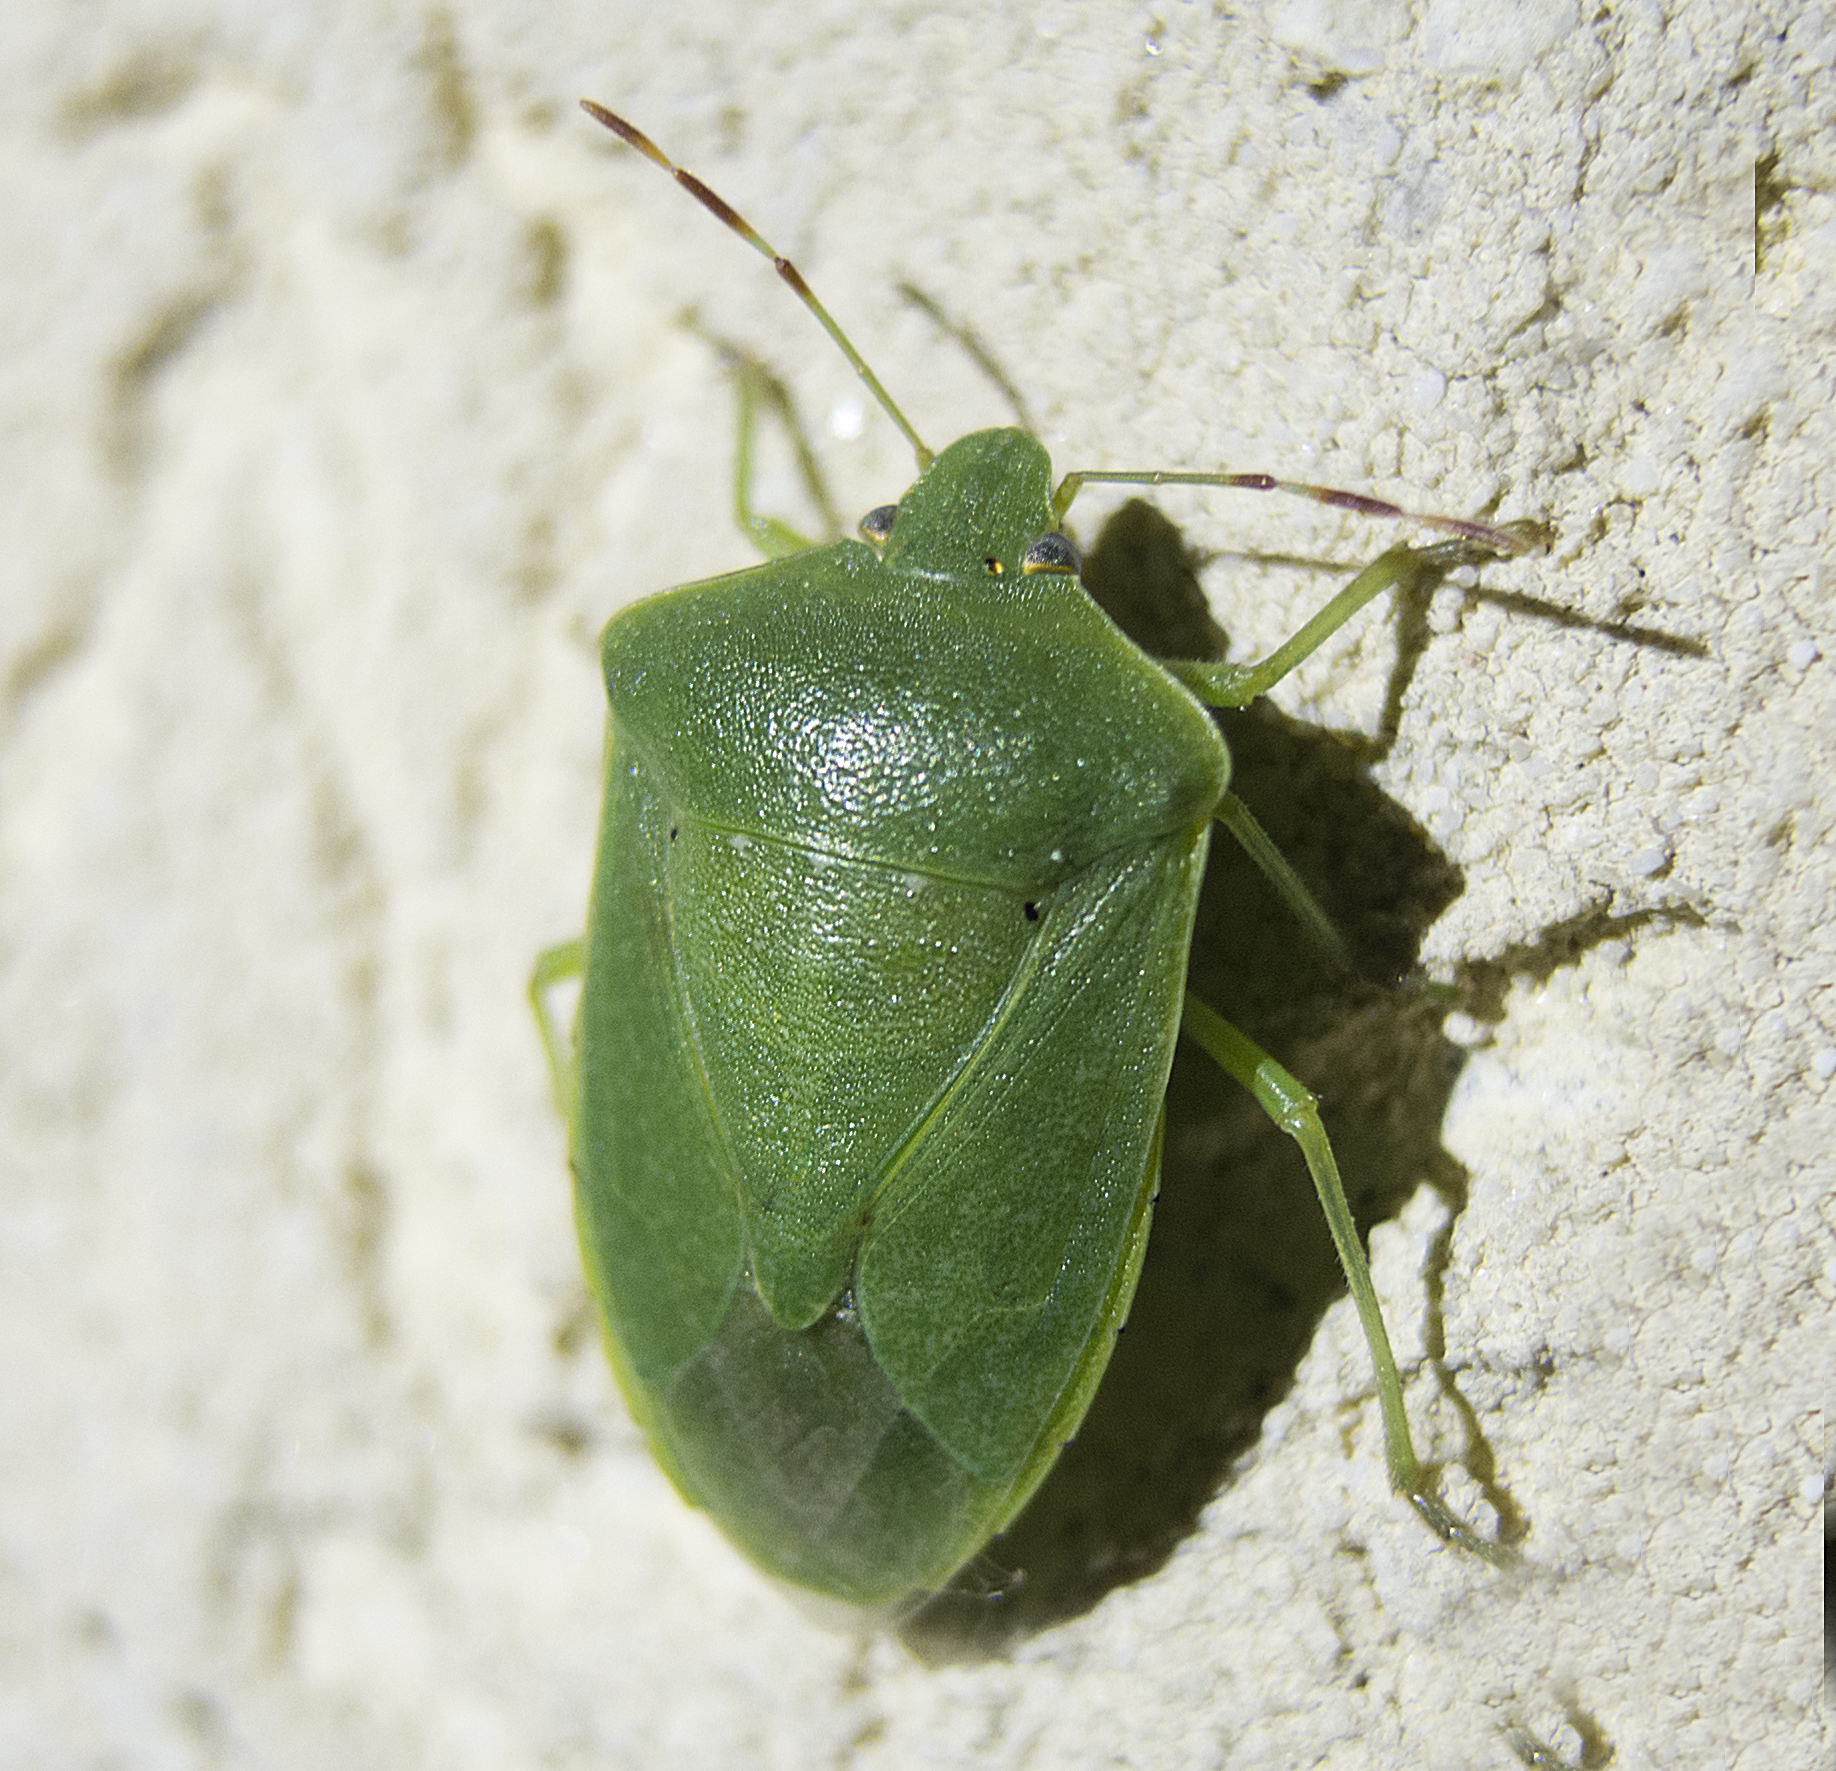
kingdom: Animalia
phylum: Arthropoda
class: Insecta
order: Hemiptera
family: Pentatomidae
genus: Nezara
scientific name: Nezara viridula
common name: Southern green stink bug
